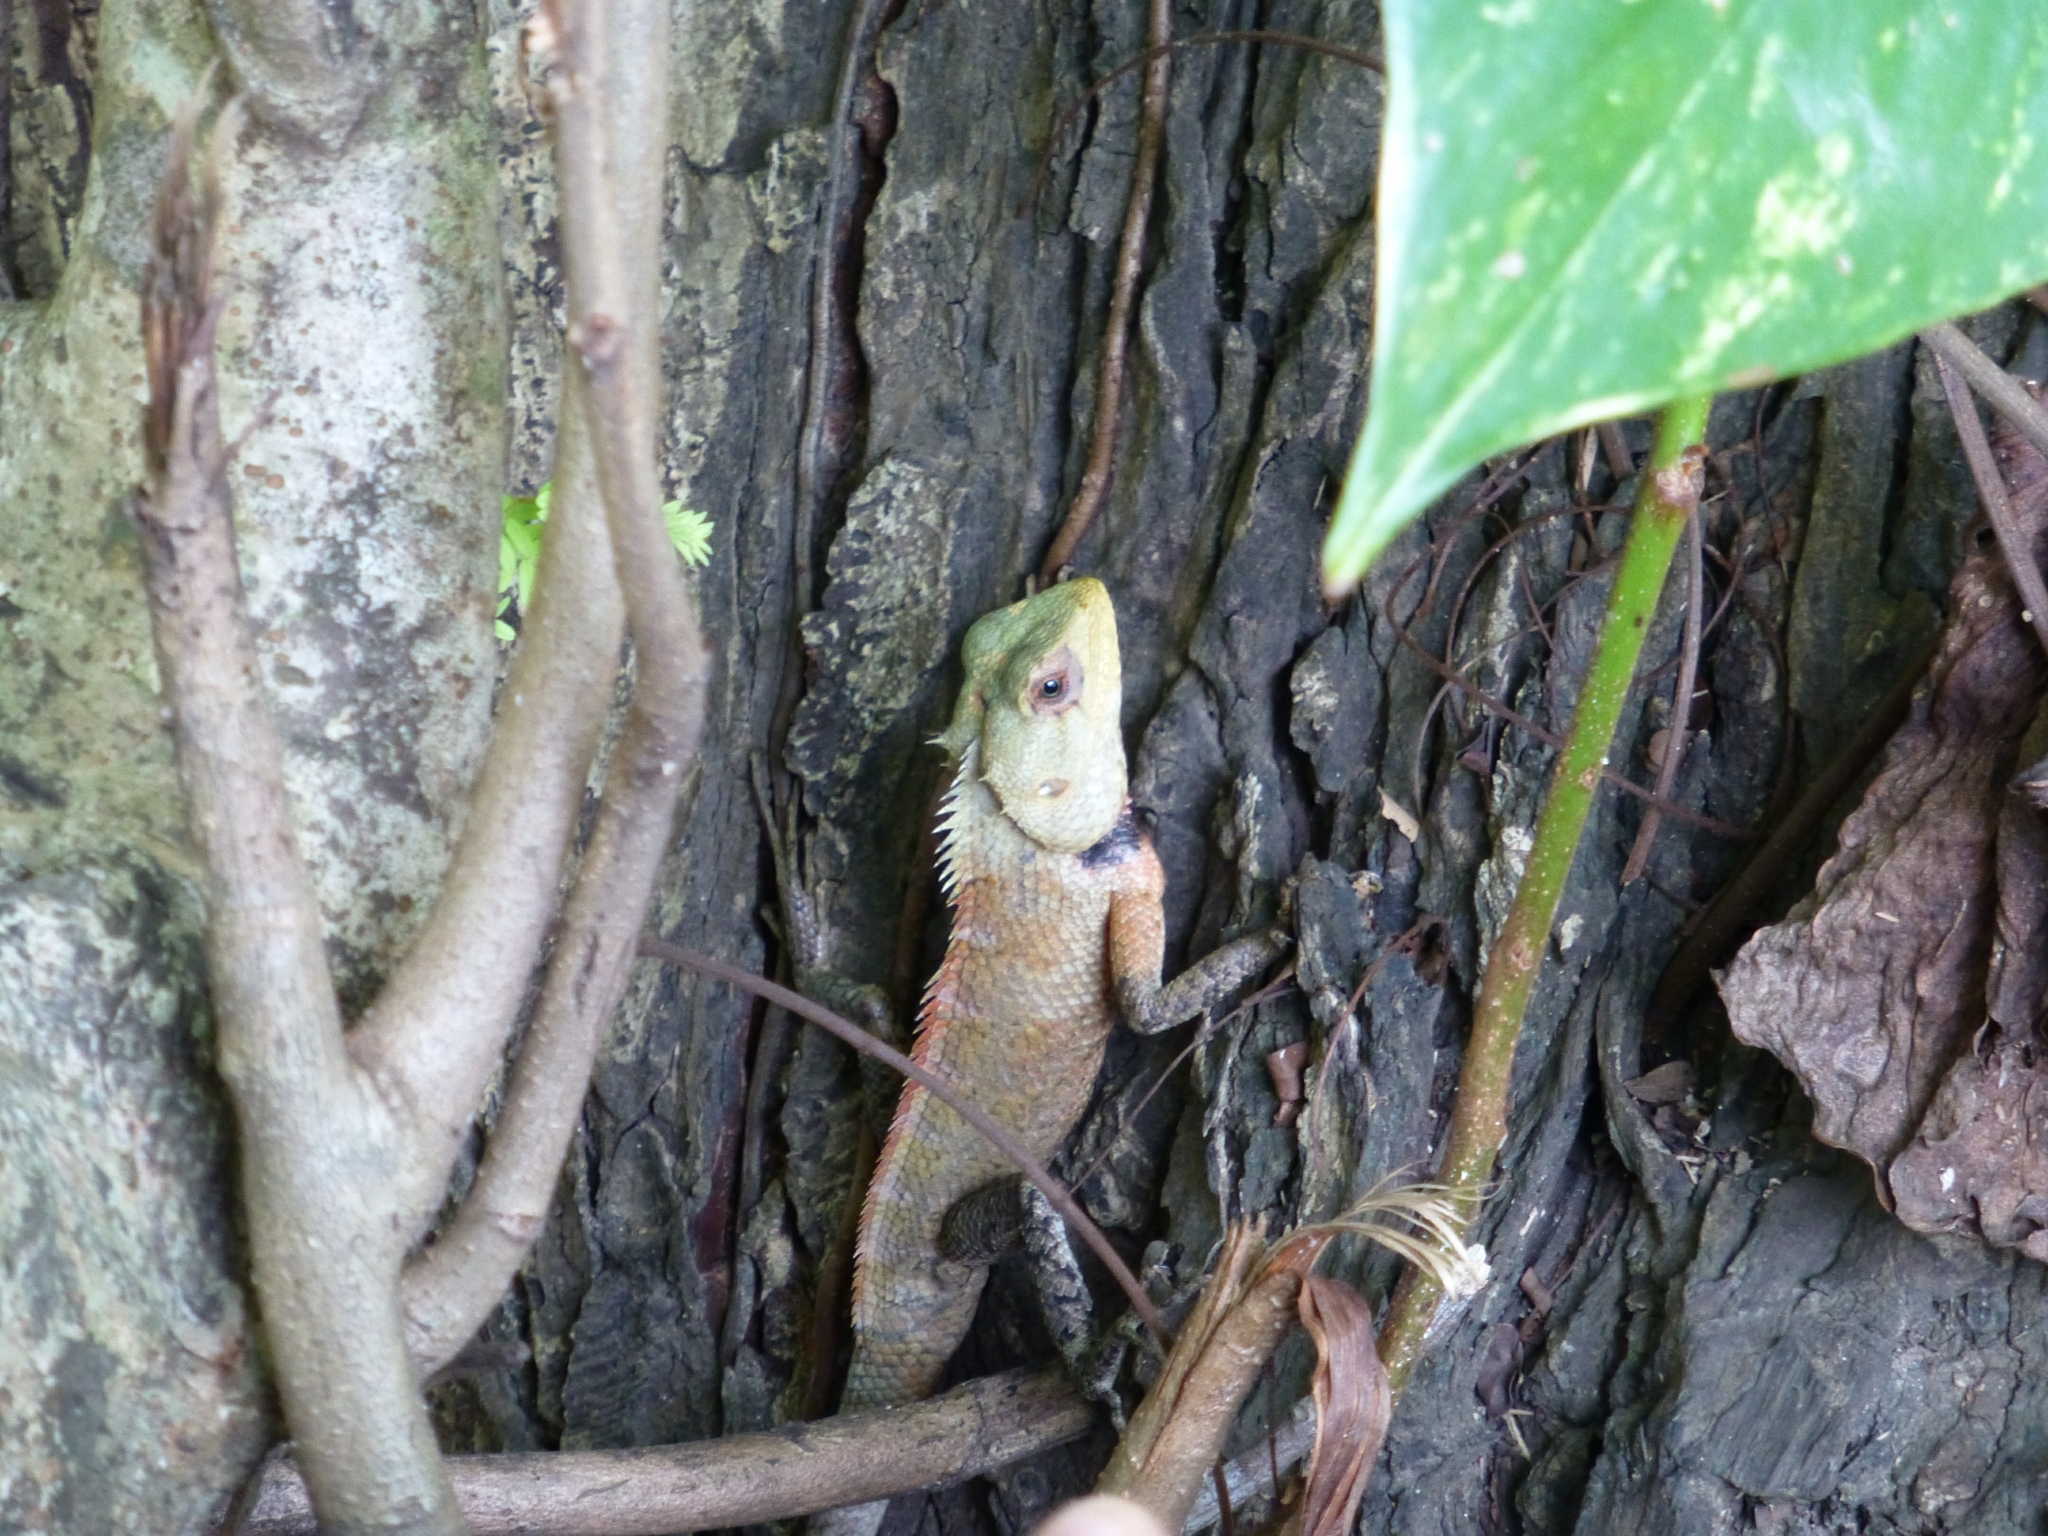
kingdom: Animalia
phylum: Chordata
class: Squamata
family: Agamidae
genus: Calotes
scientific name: Calotes versicolor
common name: Oriental garden lizard
